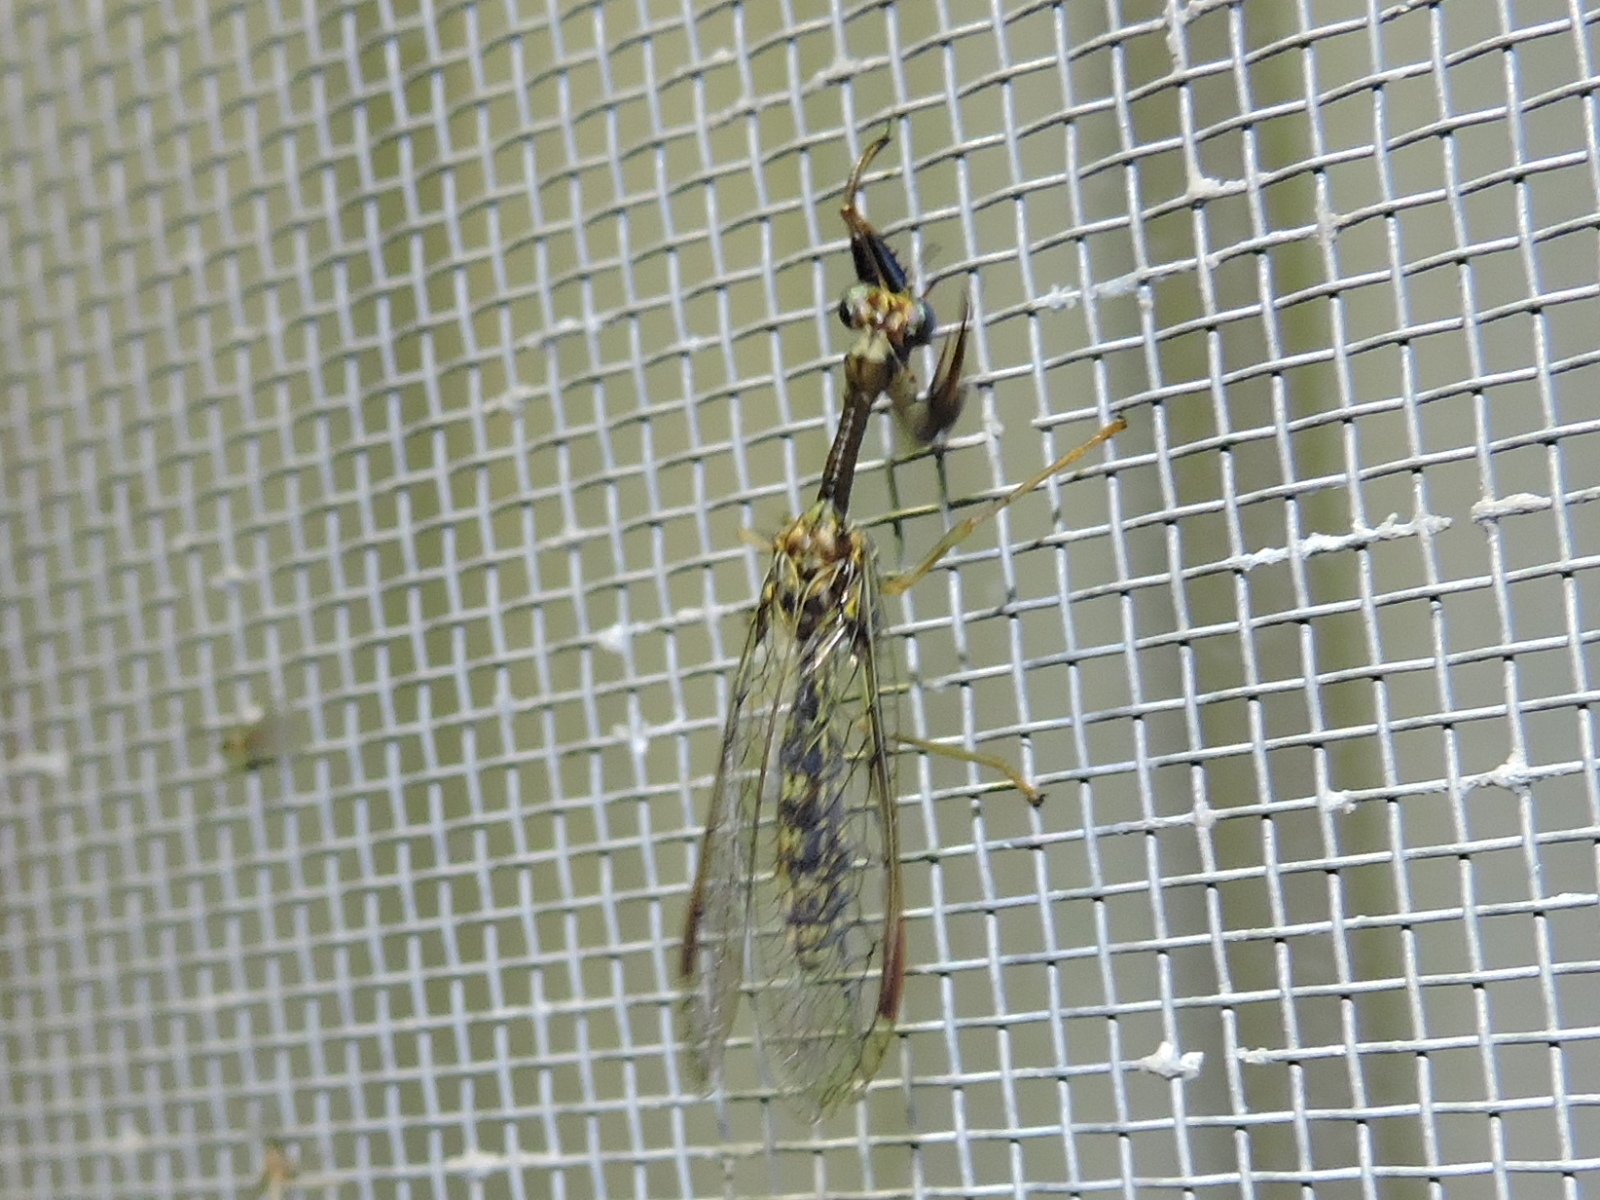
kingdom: Animalia
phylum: Arthropoda
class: Insecta
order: Neuroptera
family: Mantispidae
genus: Dicromantispa
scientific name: Dicromantispa sayi
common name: Say's mantidfly
